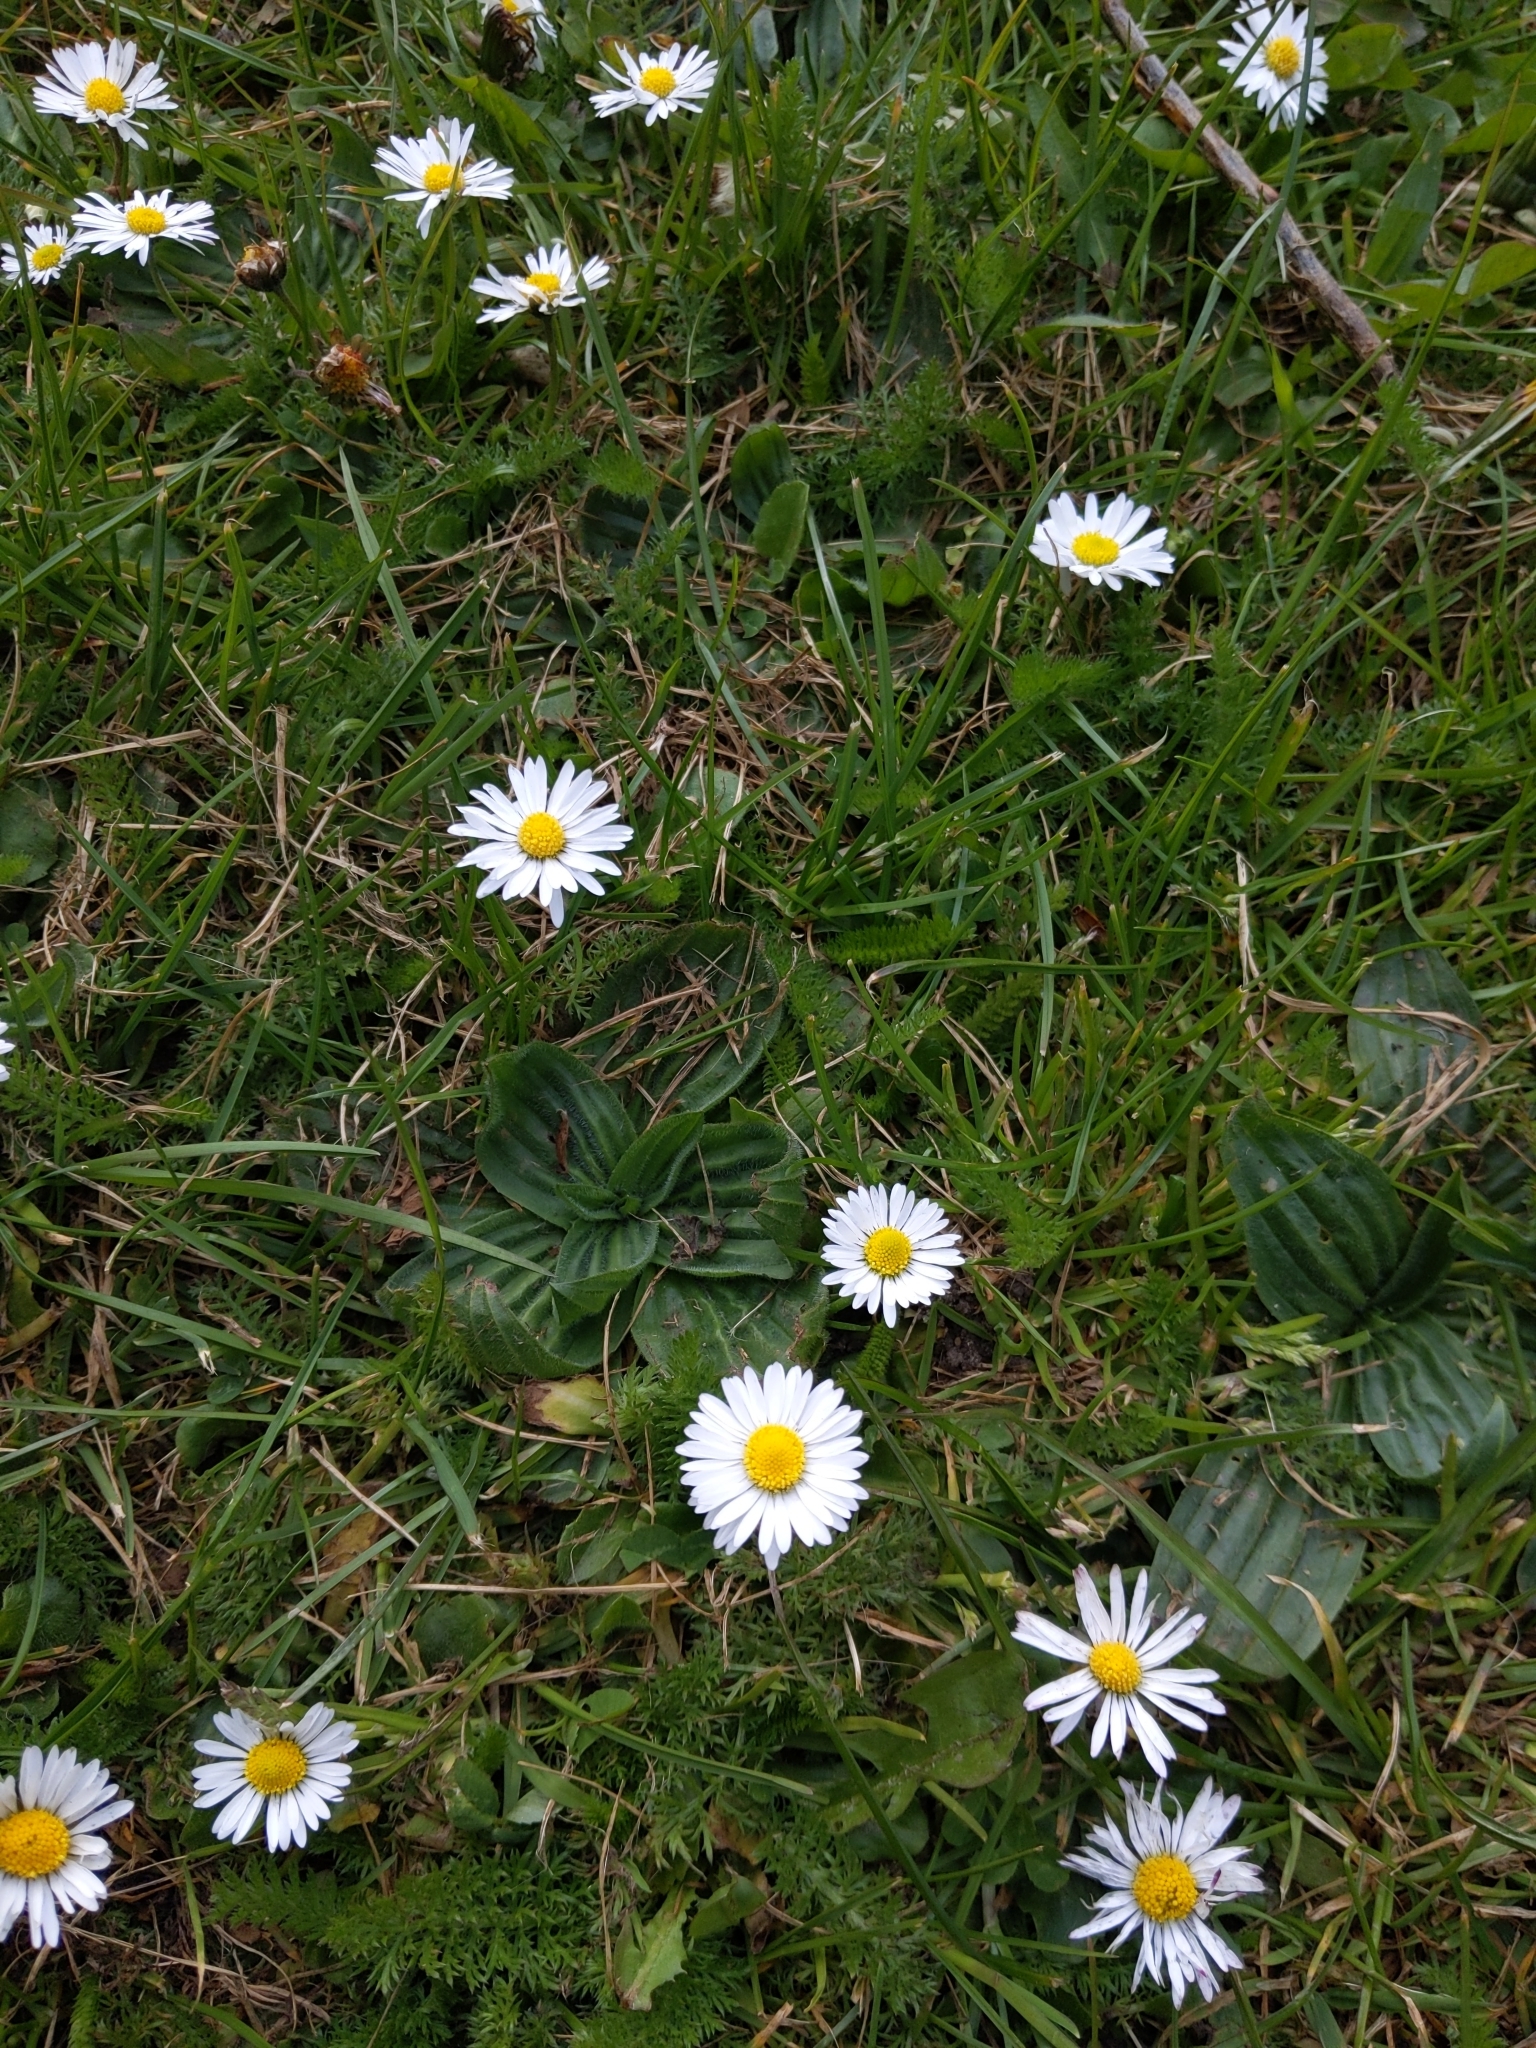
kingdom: Plantae
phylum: Tracheophyta
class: Magnoliopsida
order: Asterales
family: Asteraceae
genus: Bellis
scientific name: Bellis perennis
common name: Lawndaisy
